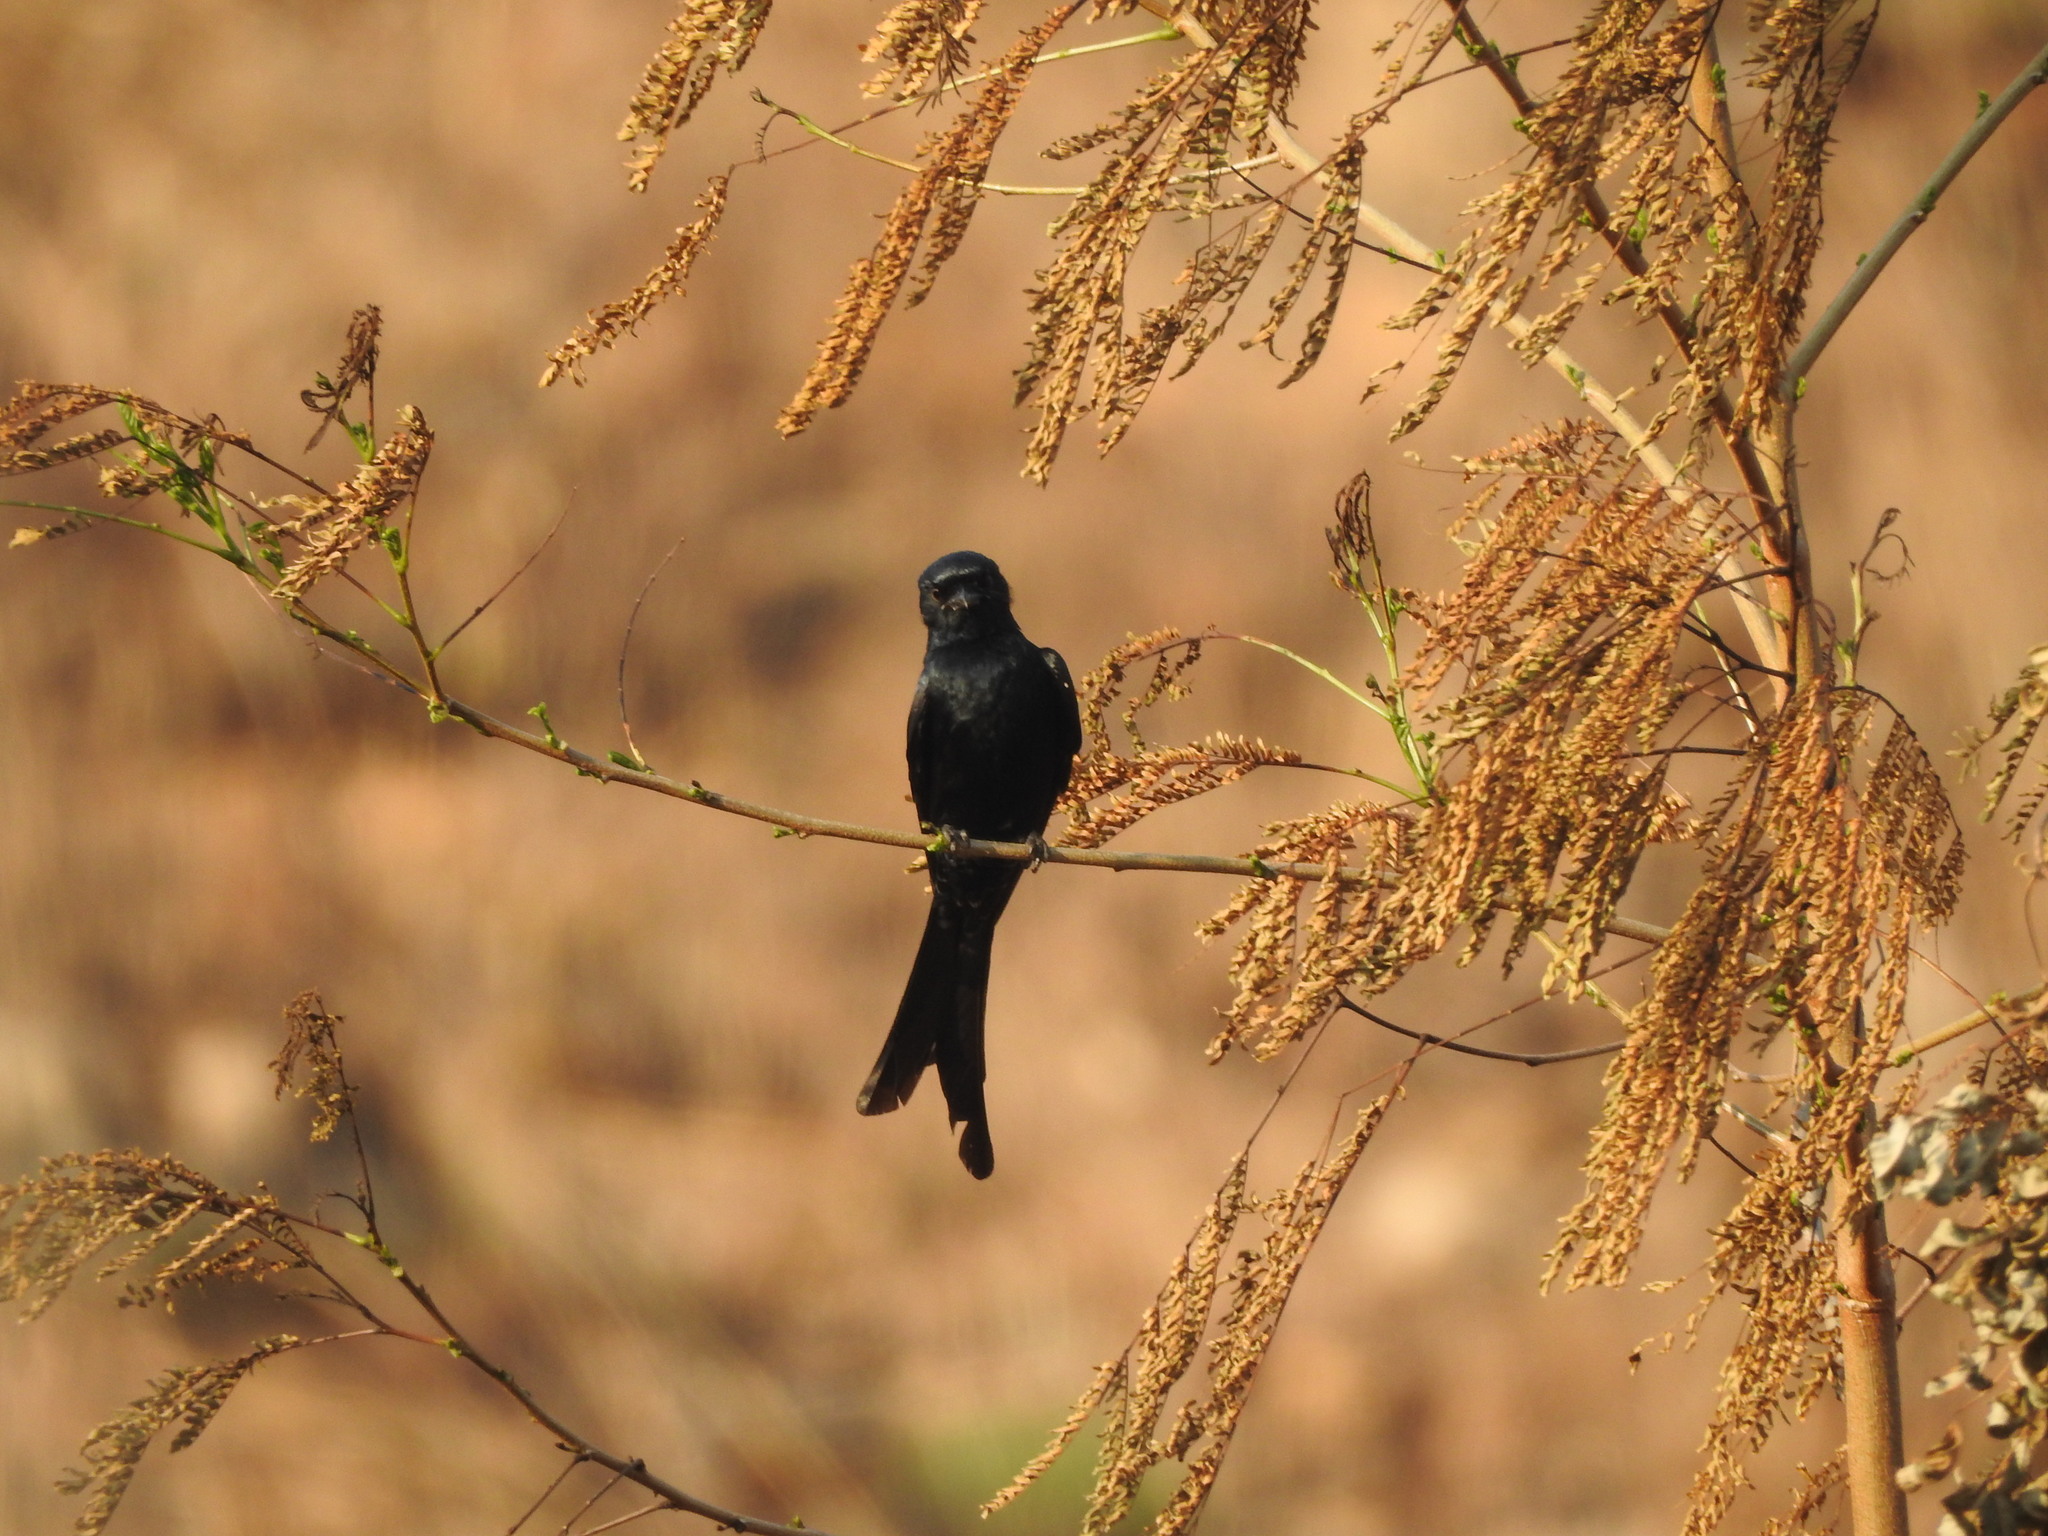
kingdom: Animalia
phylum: Chordata
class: Aves
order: Passeriformes
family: Dicruridae
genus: Dicrurus
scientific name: Dicrurus macrocercus
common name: Black drongo
